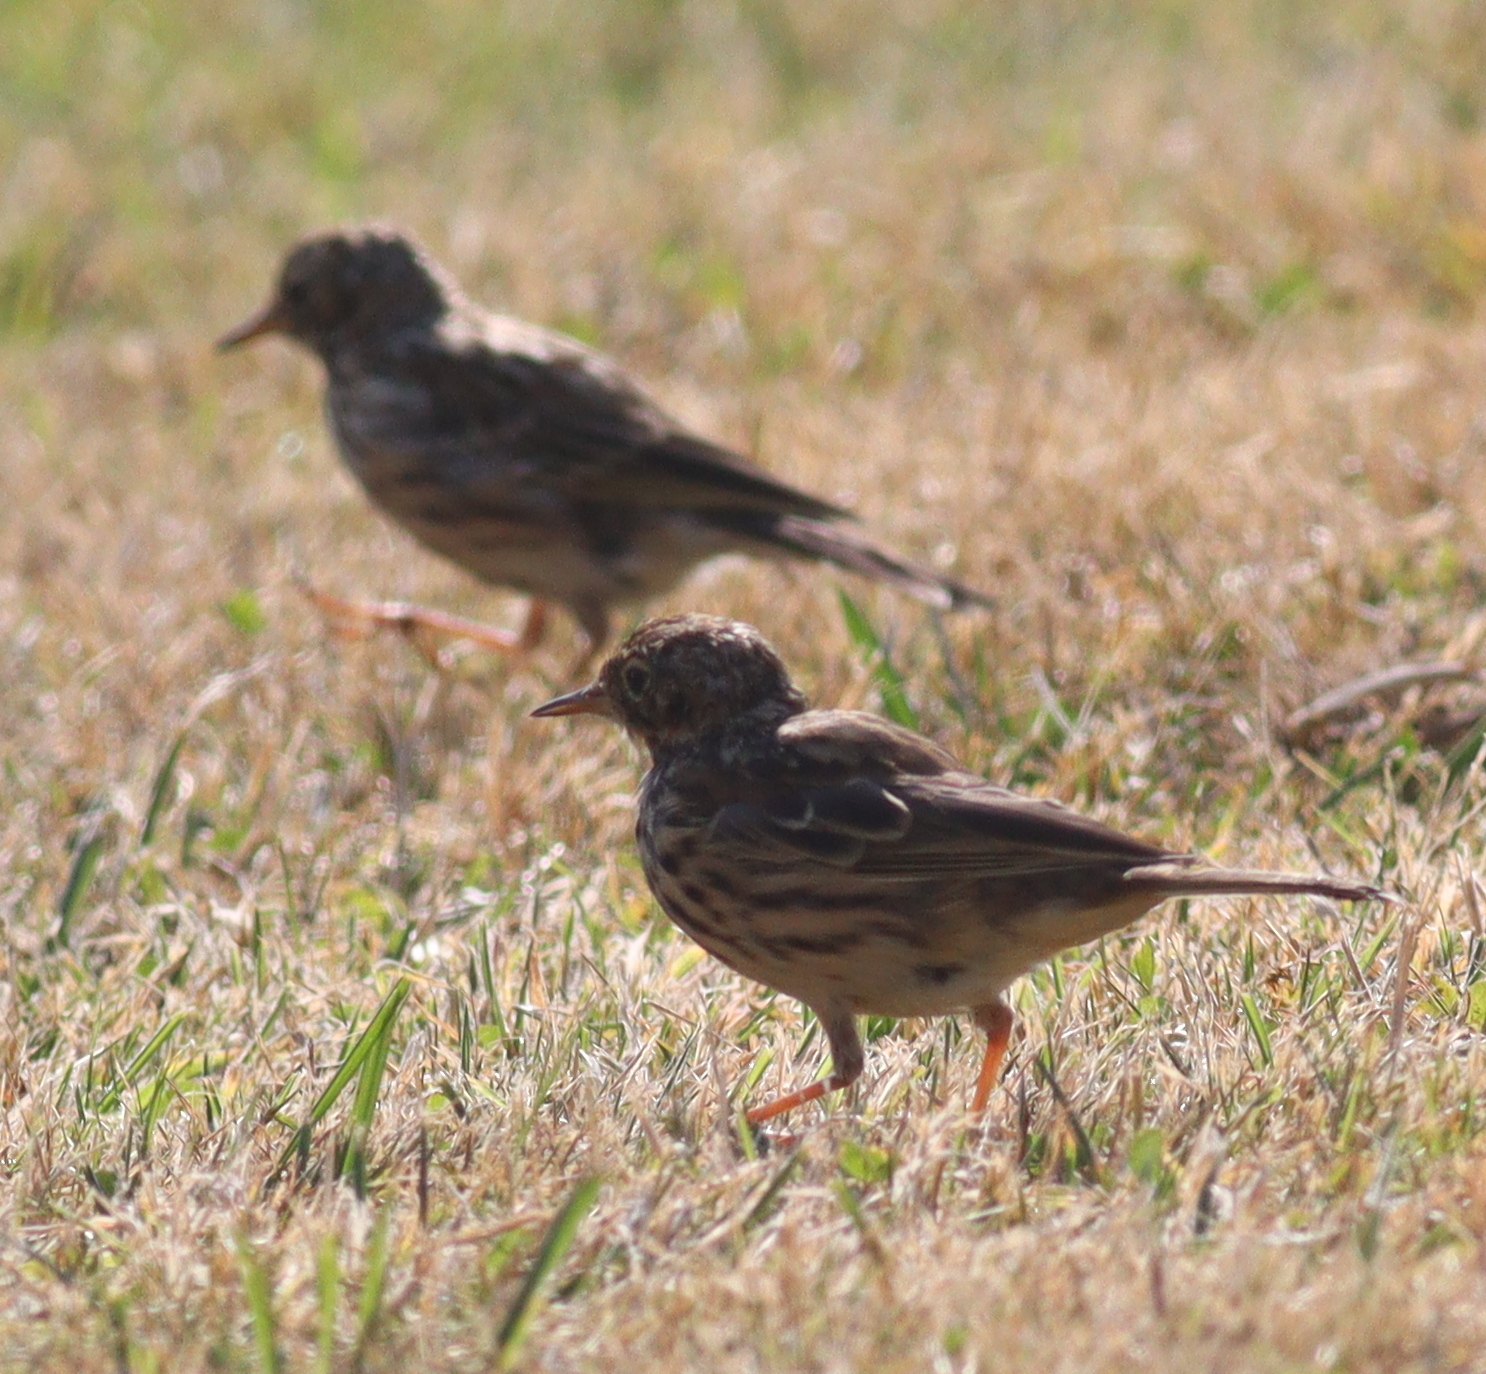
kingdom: Animalia
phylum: Chordata
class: Aves
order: Passeriformes
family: Motacillidae
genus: Anthus
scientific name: Anthus pratensis
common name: Meadow pipit
